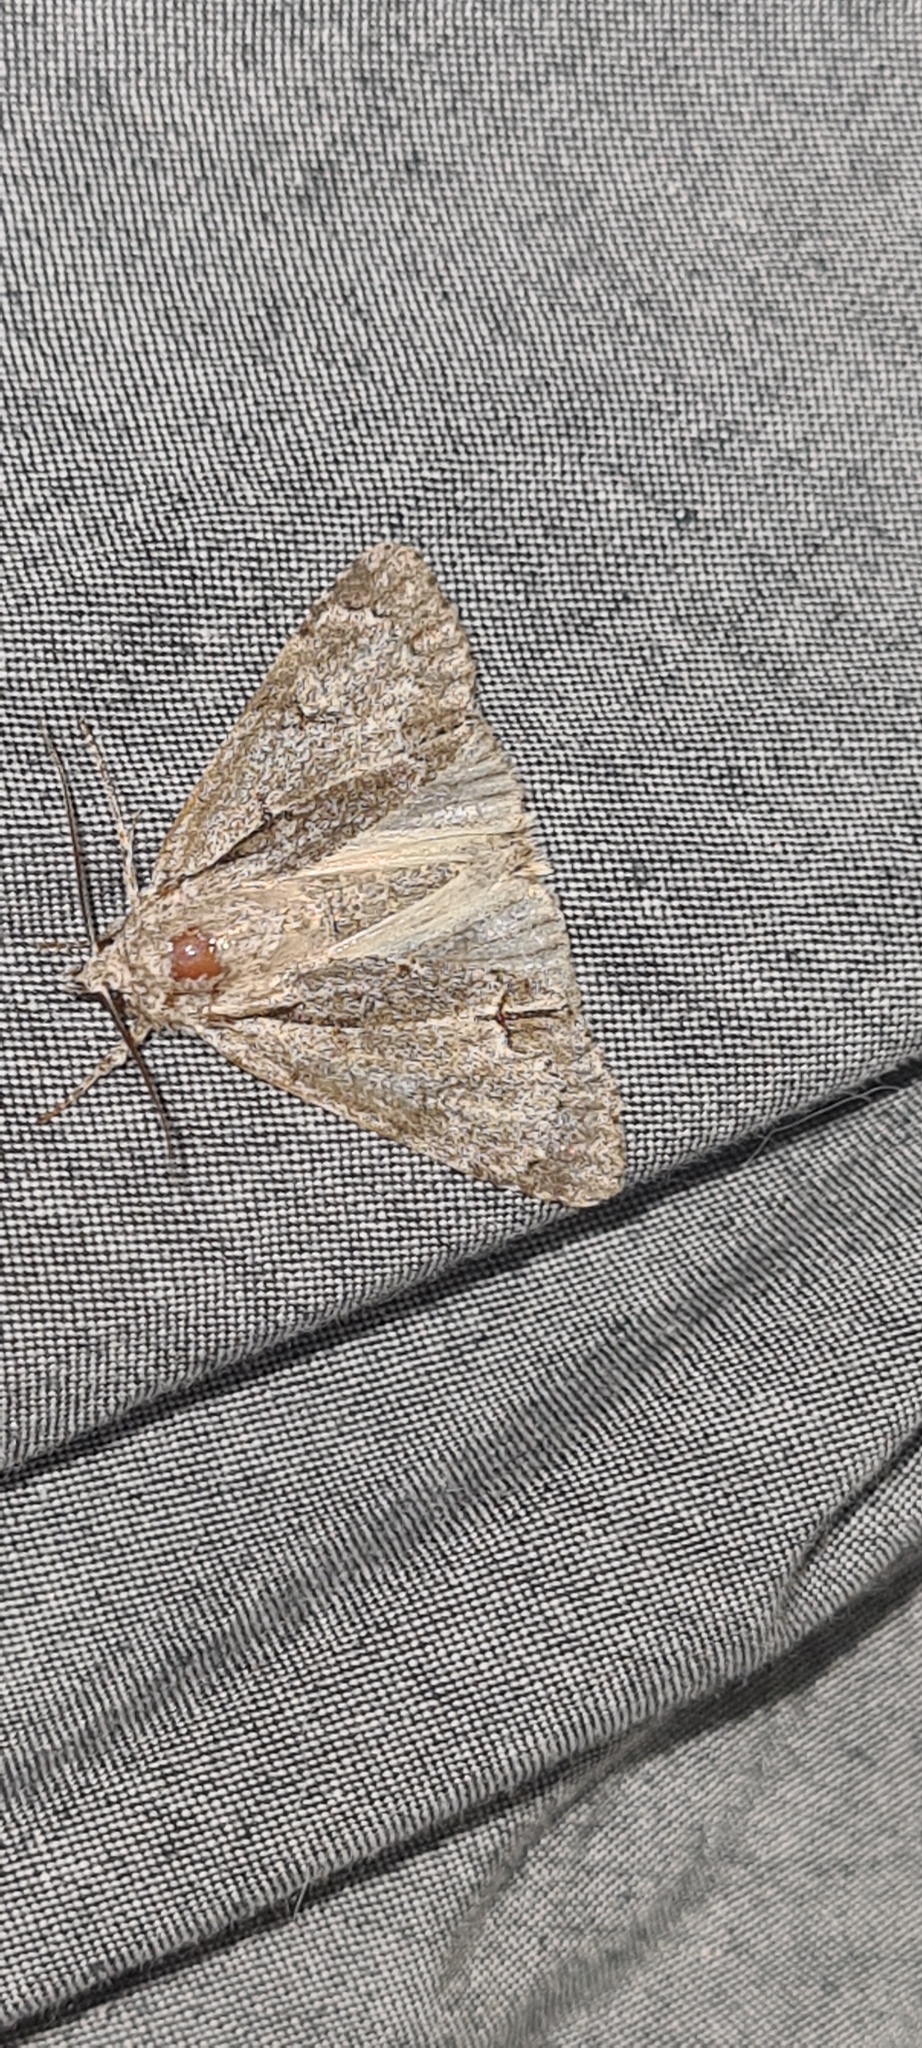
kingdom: Animalia
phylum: Arthropoda
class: Insecta
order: Lepidoptera
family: Noctuidae
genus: Acronicta
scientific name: Acronicta
